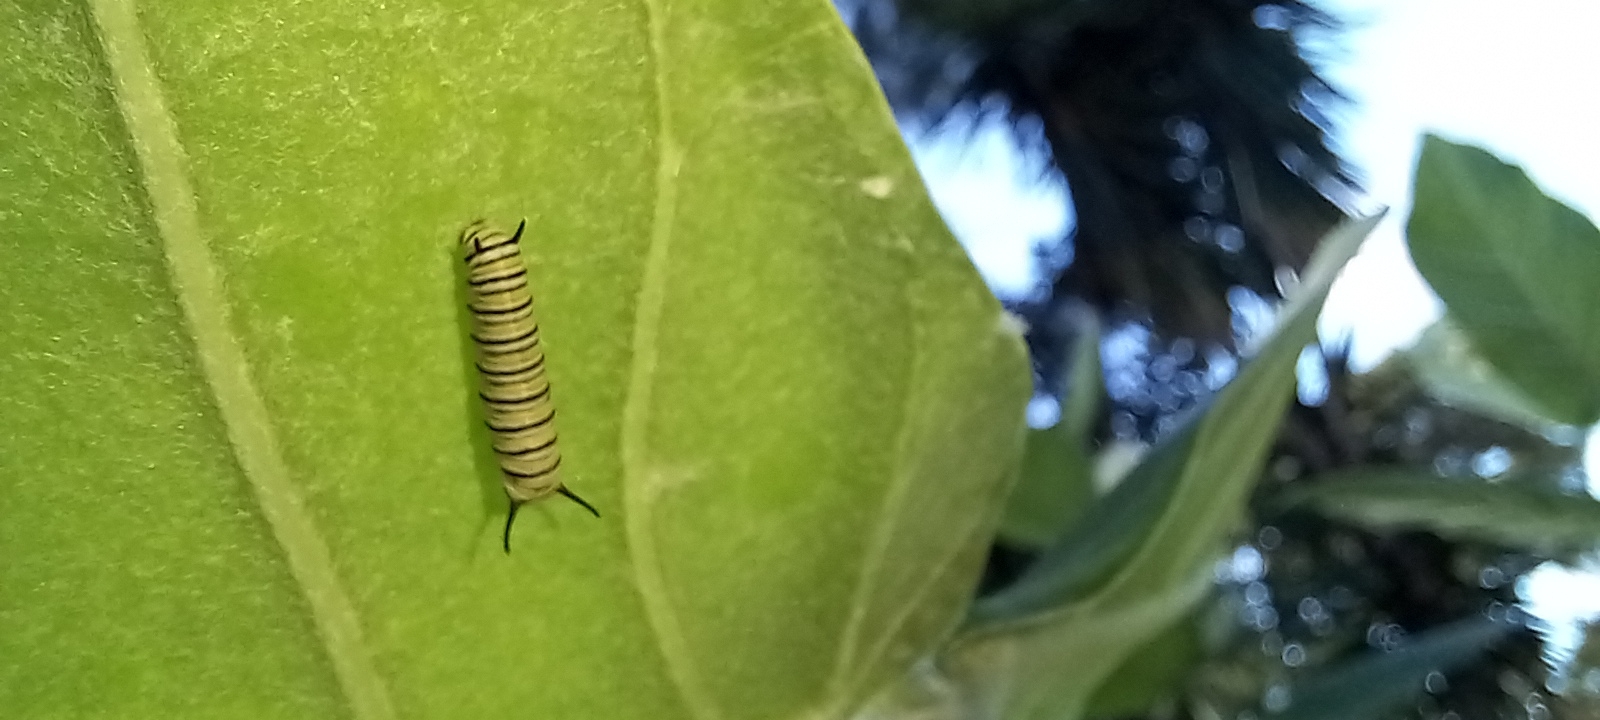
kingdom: Animalia
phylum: Arthropoda
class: Insecta
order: Lepidoptera
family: Nymphalidae
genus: Danaus
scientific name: Danaus plexippus
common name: Monarch
